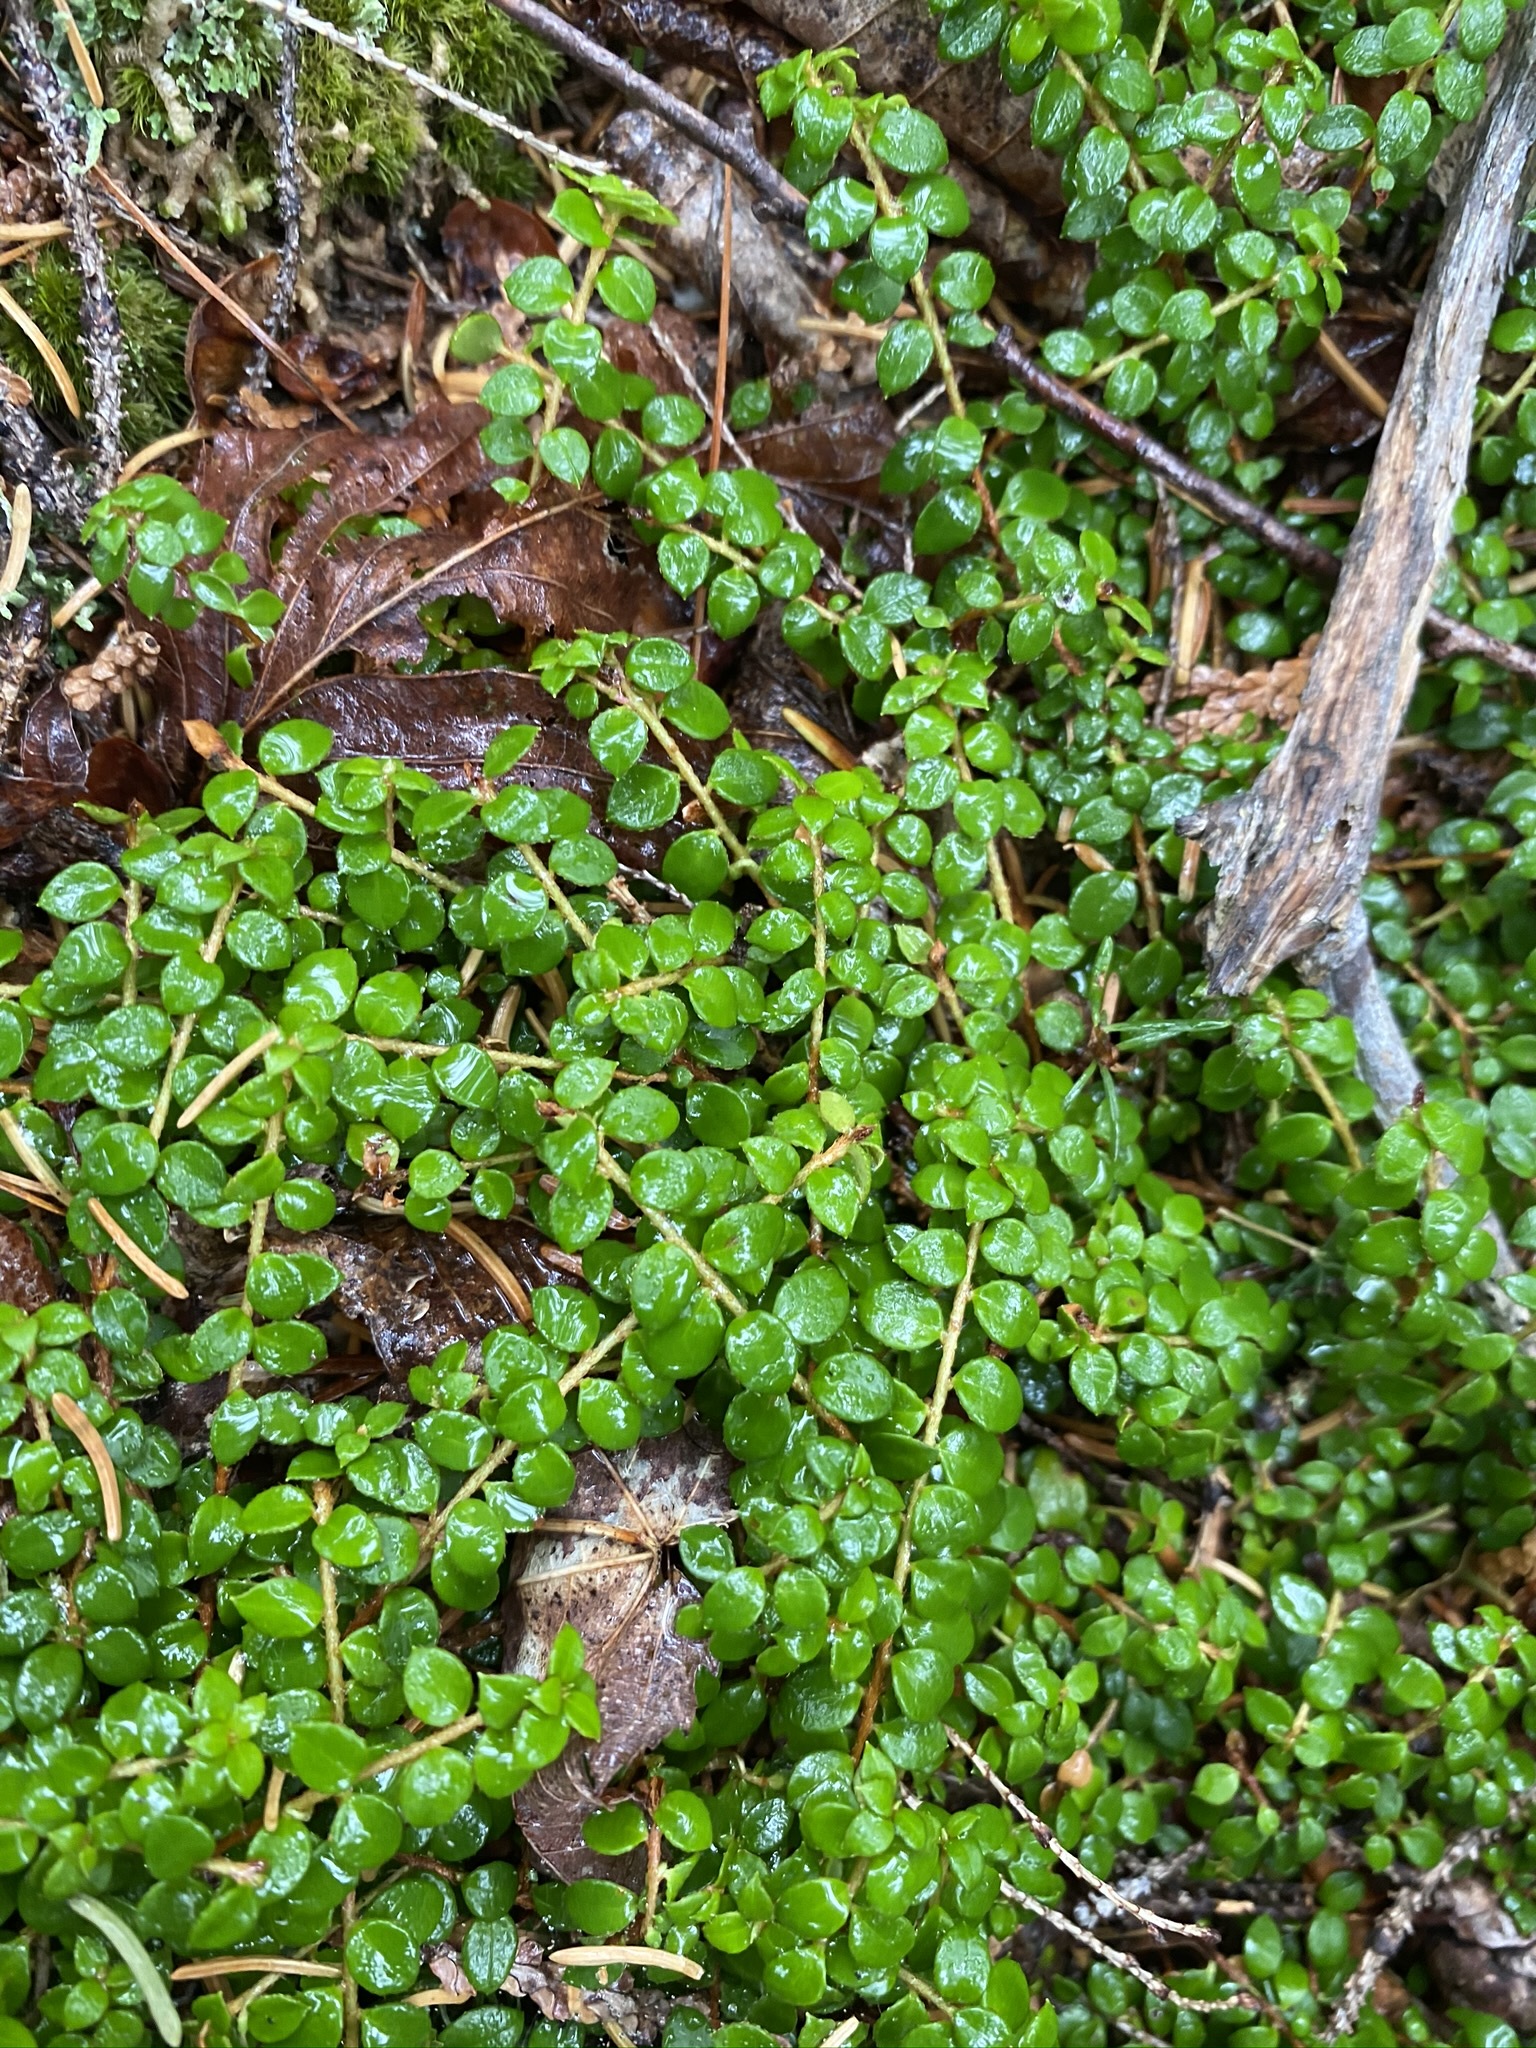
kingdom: Plantae
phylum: Tracheophyta
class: Magnoliopsida
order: Ericales
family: Ericaceae
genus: Gaultheria
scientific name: Gaultheria hispidula
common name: Cancer wintergreen
